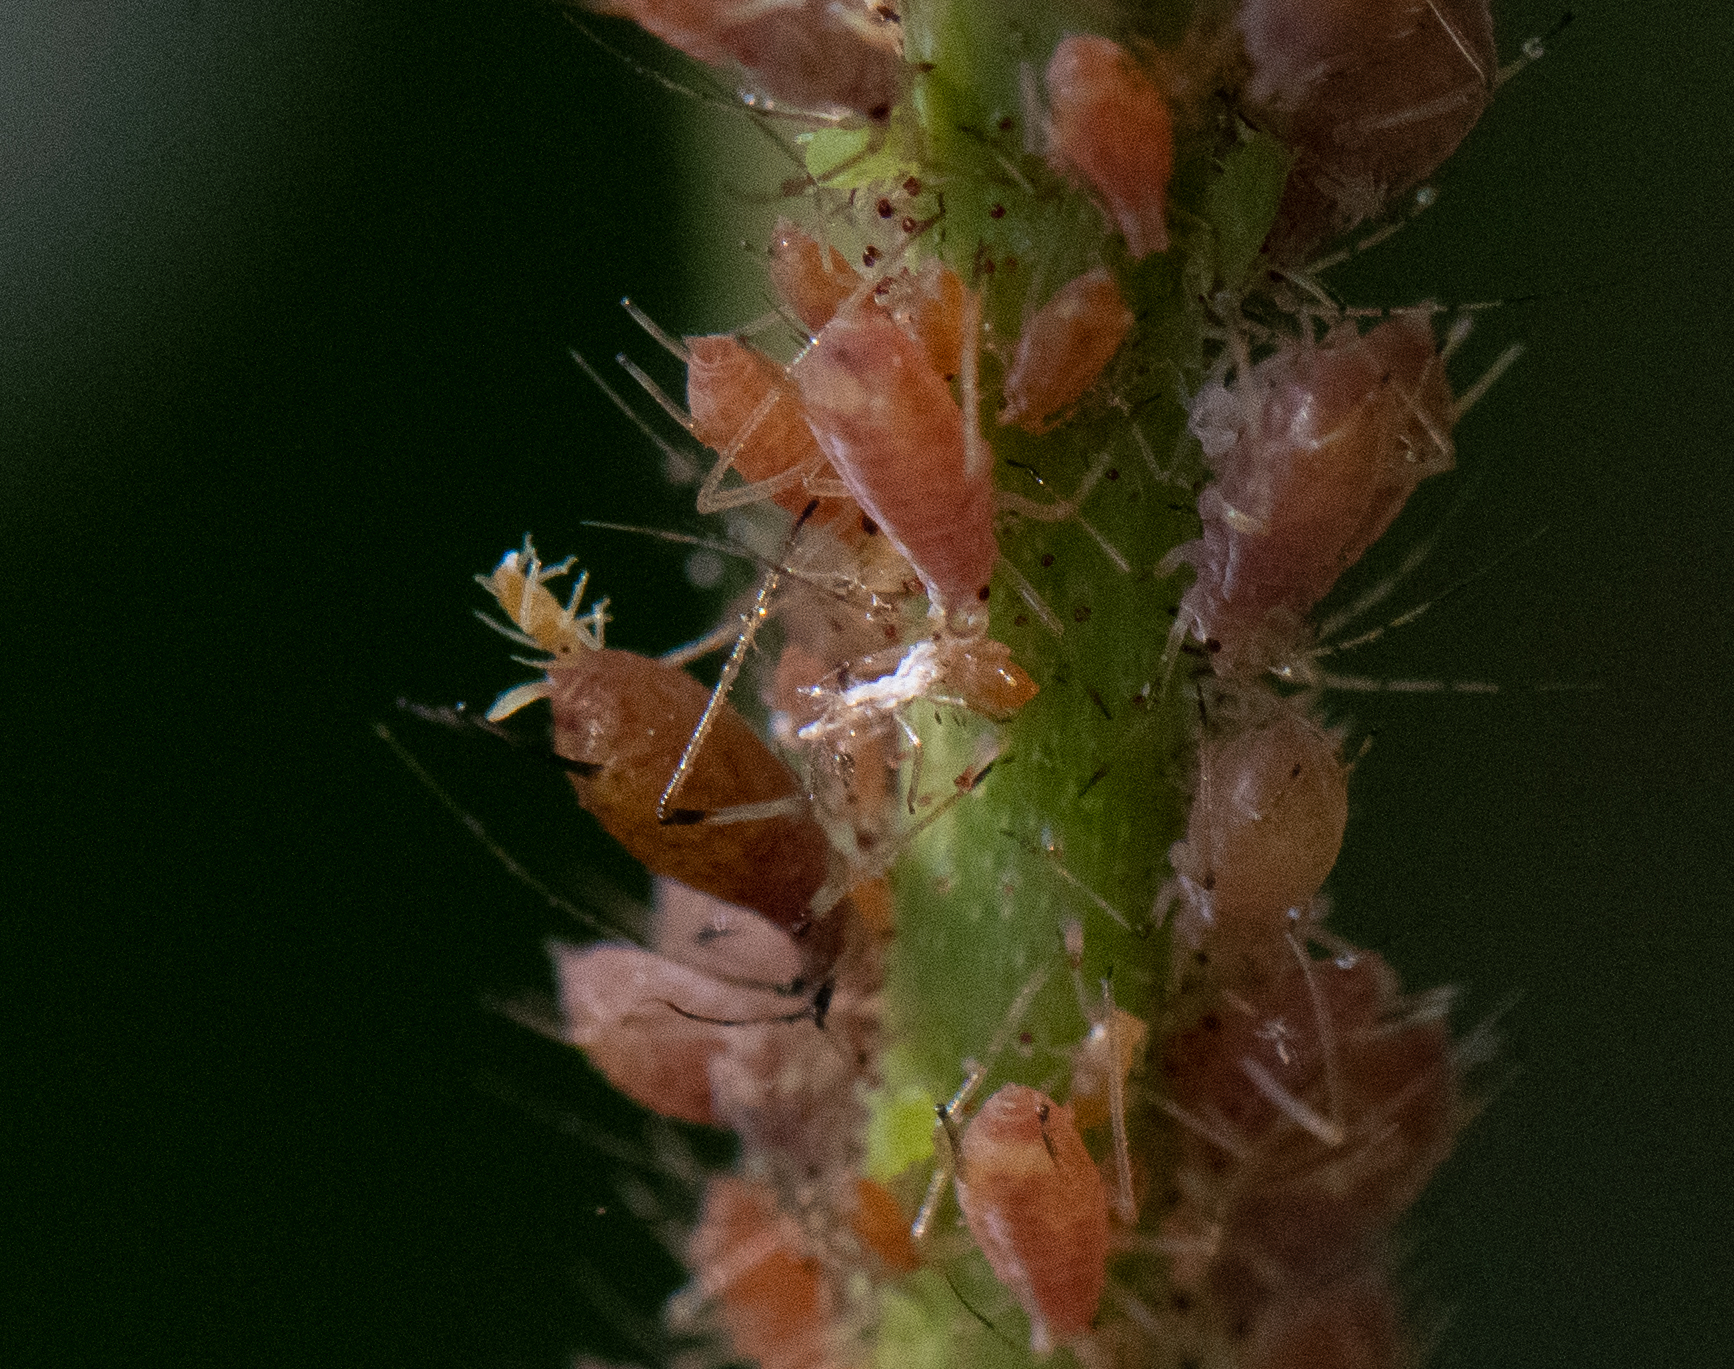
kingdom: Animalia
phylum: Arthropoda
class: Insecta
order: Hemiptera
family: Aphididae
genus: Macrosiphum
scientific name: Macrosiphum rosae
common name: Rose aphid
